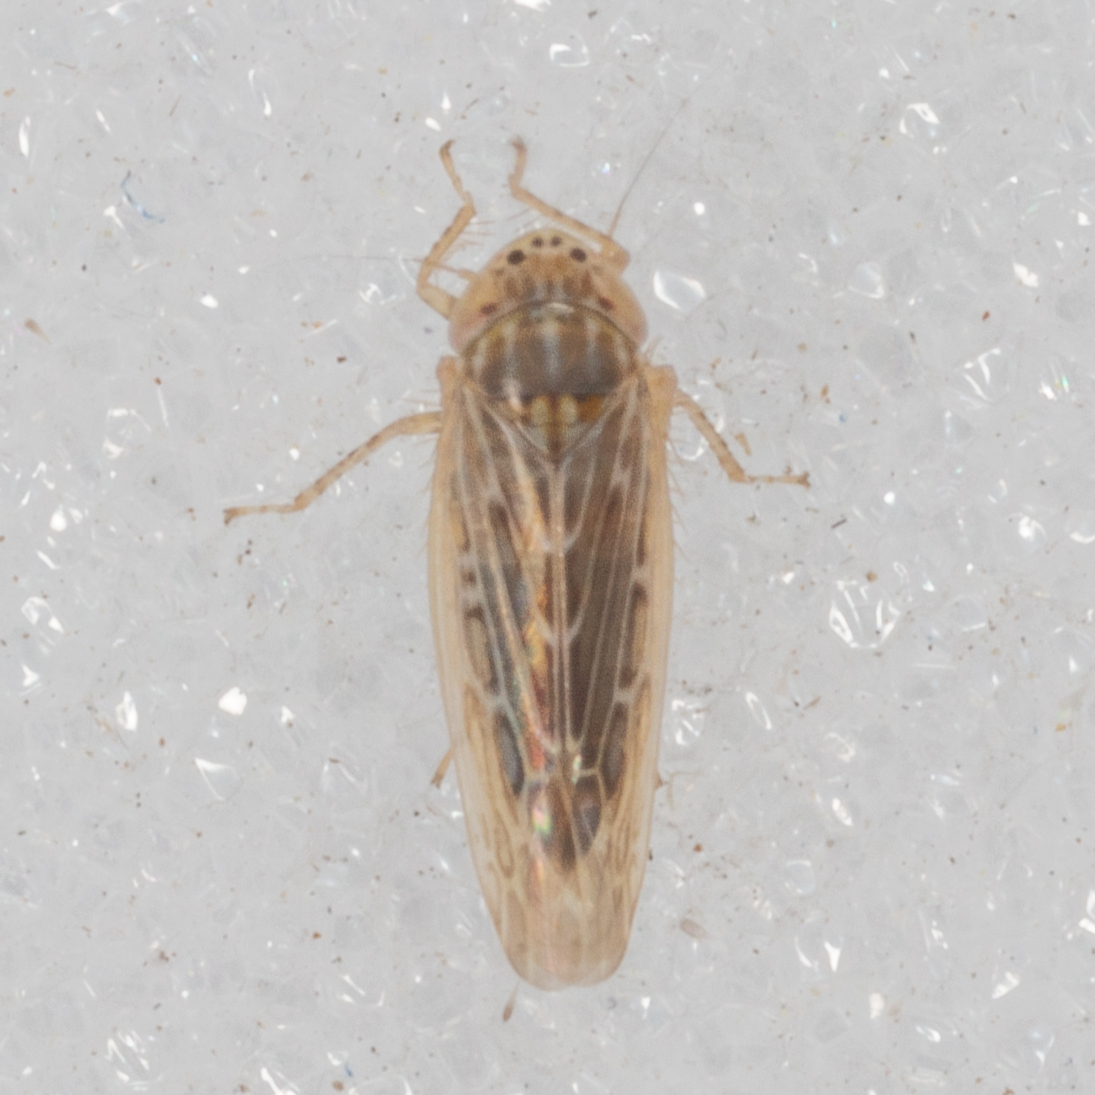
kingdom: Animalia
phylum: Arthropoda
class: Insecta
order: Hemiptera
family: Cicadellidae
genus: Graminella
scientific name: Graminella sonora
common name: Lesser lawn leafhopper
